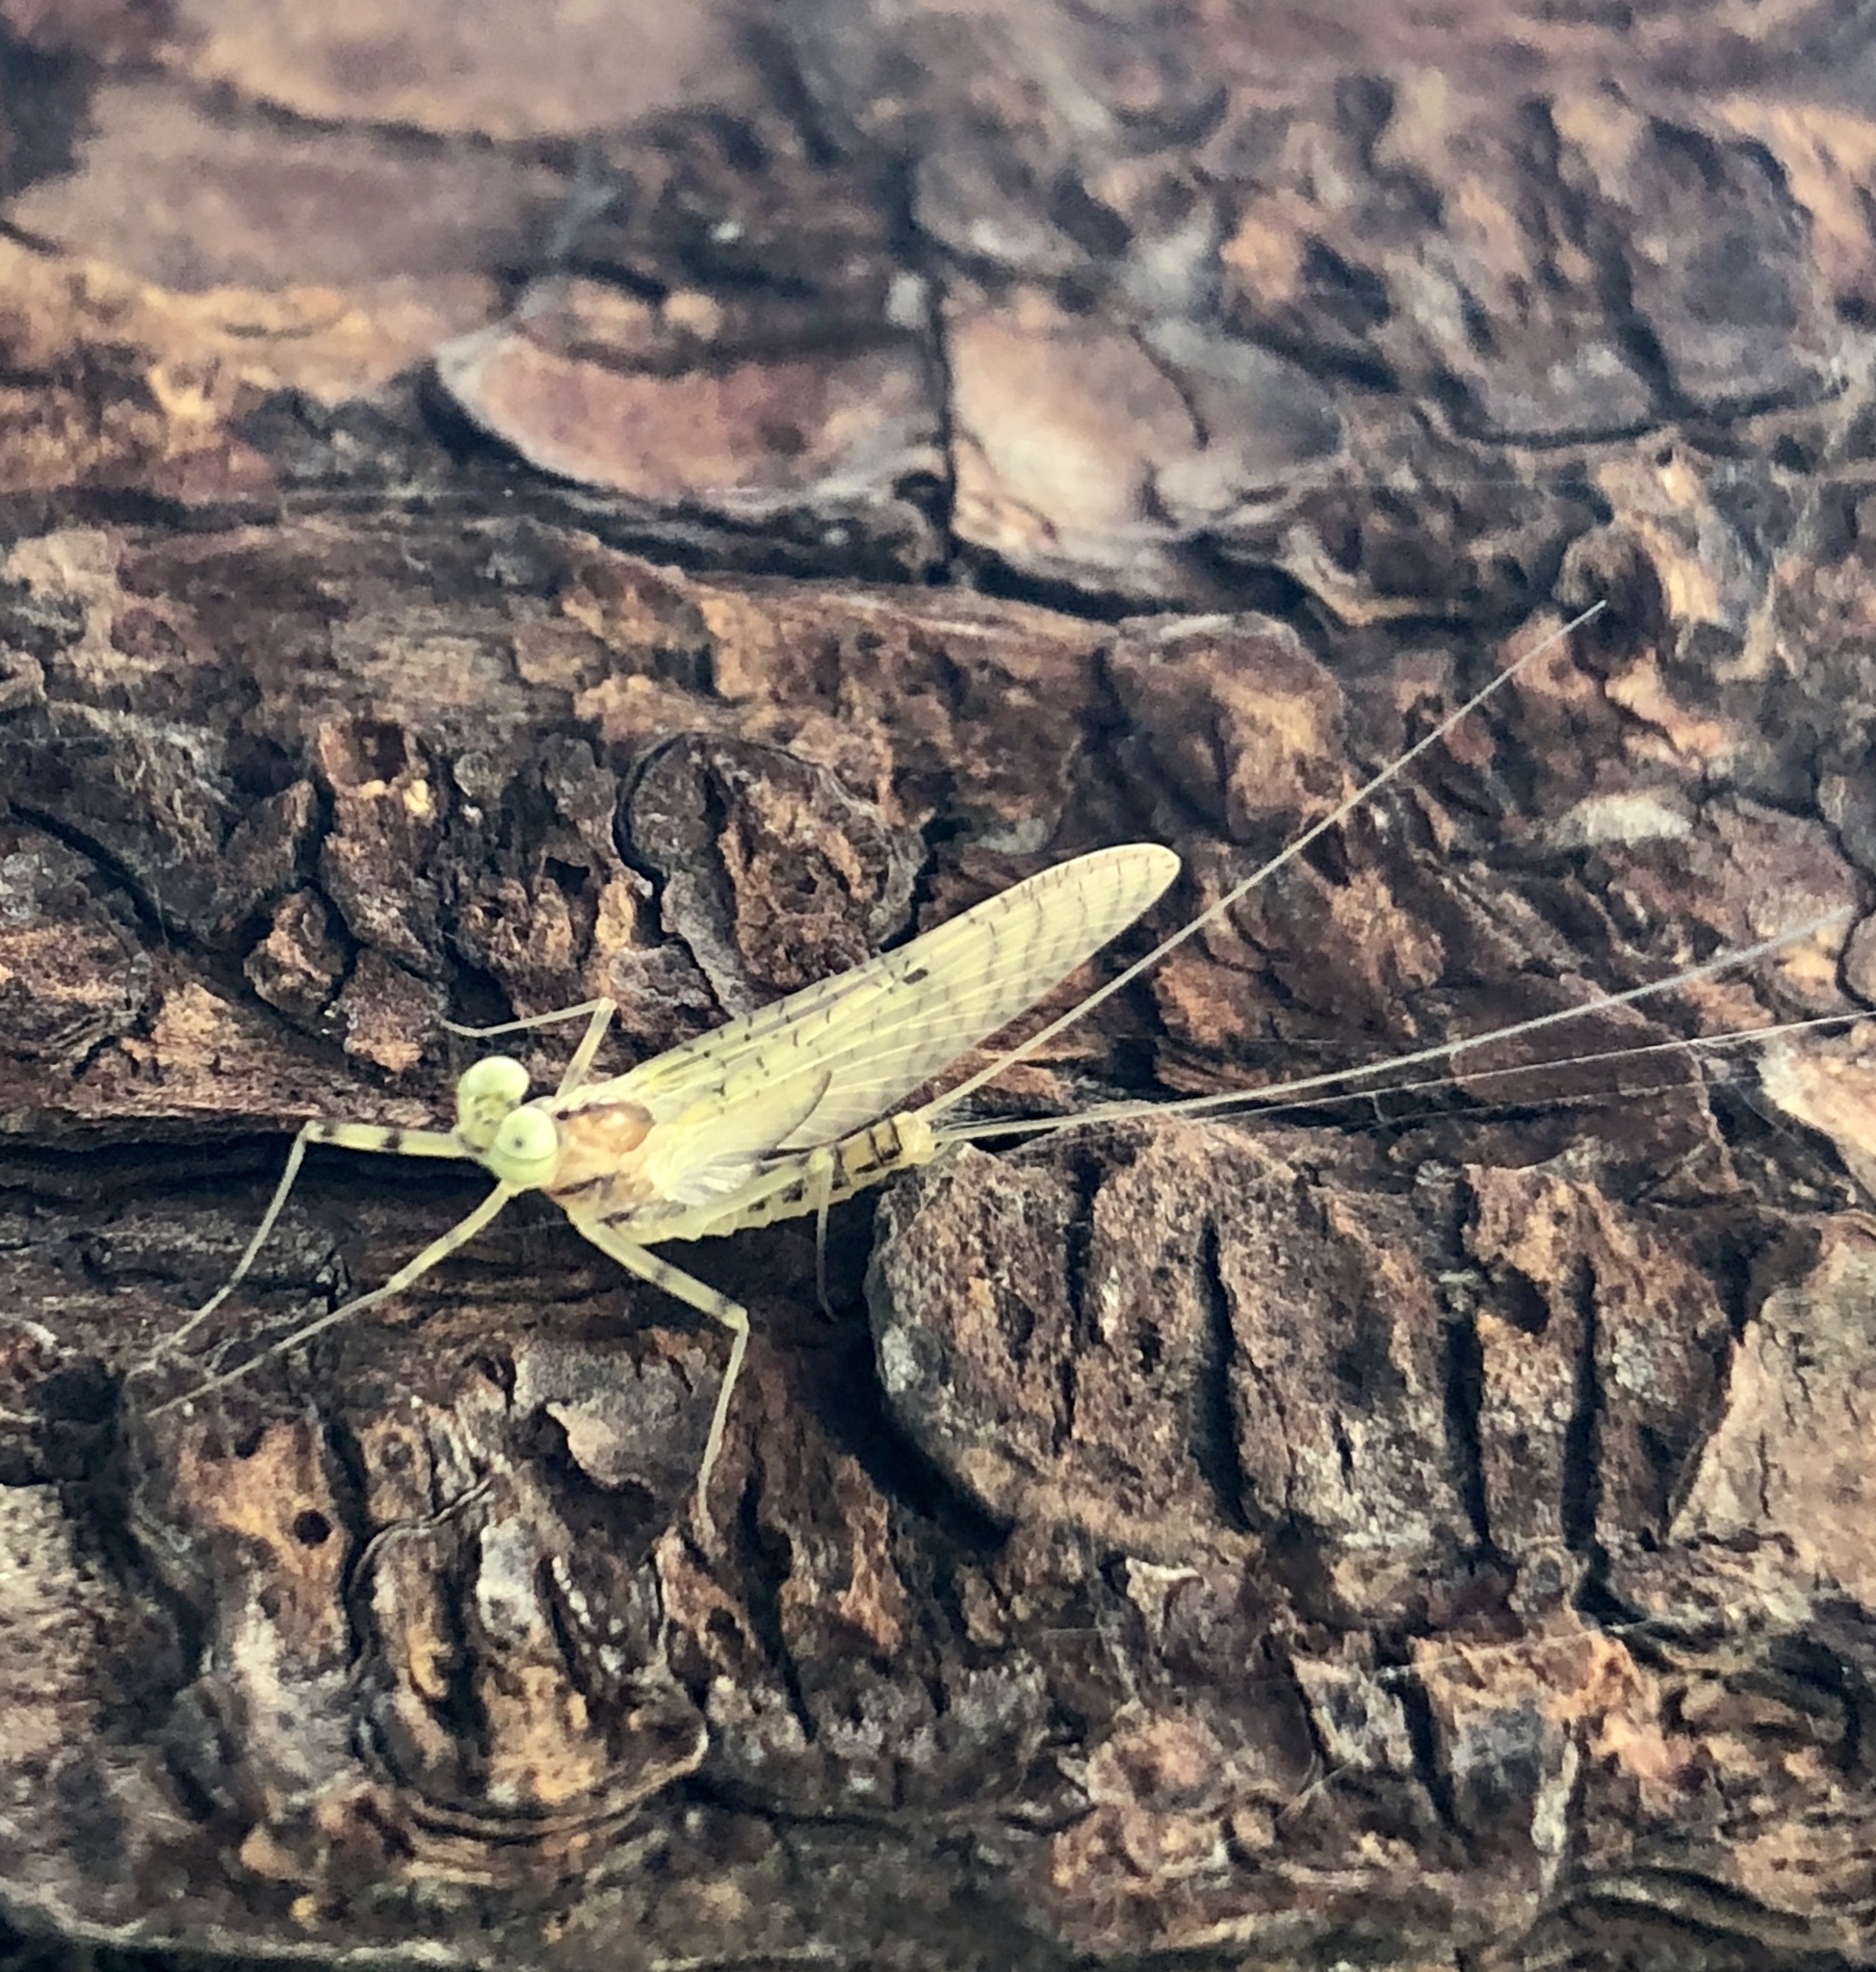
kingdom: Animalia
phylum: Arthropoda
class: Insecta
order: Ephemeroptera
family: Heptageniidae
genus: Stenacron
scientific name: Stenacron interpunctatum
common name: Orange cahill
